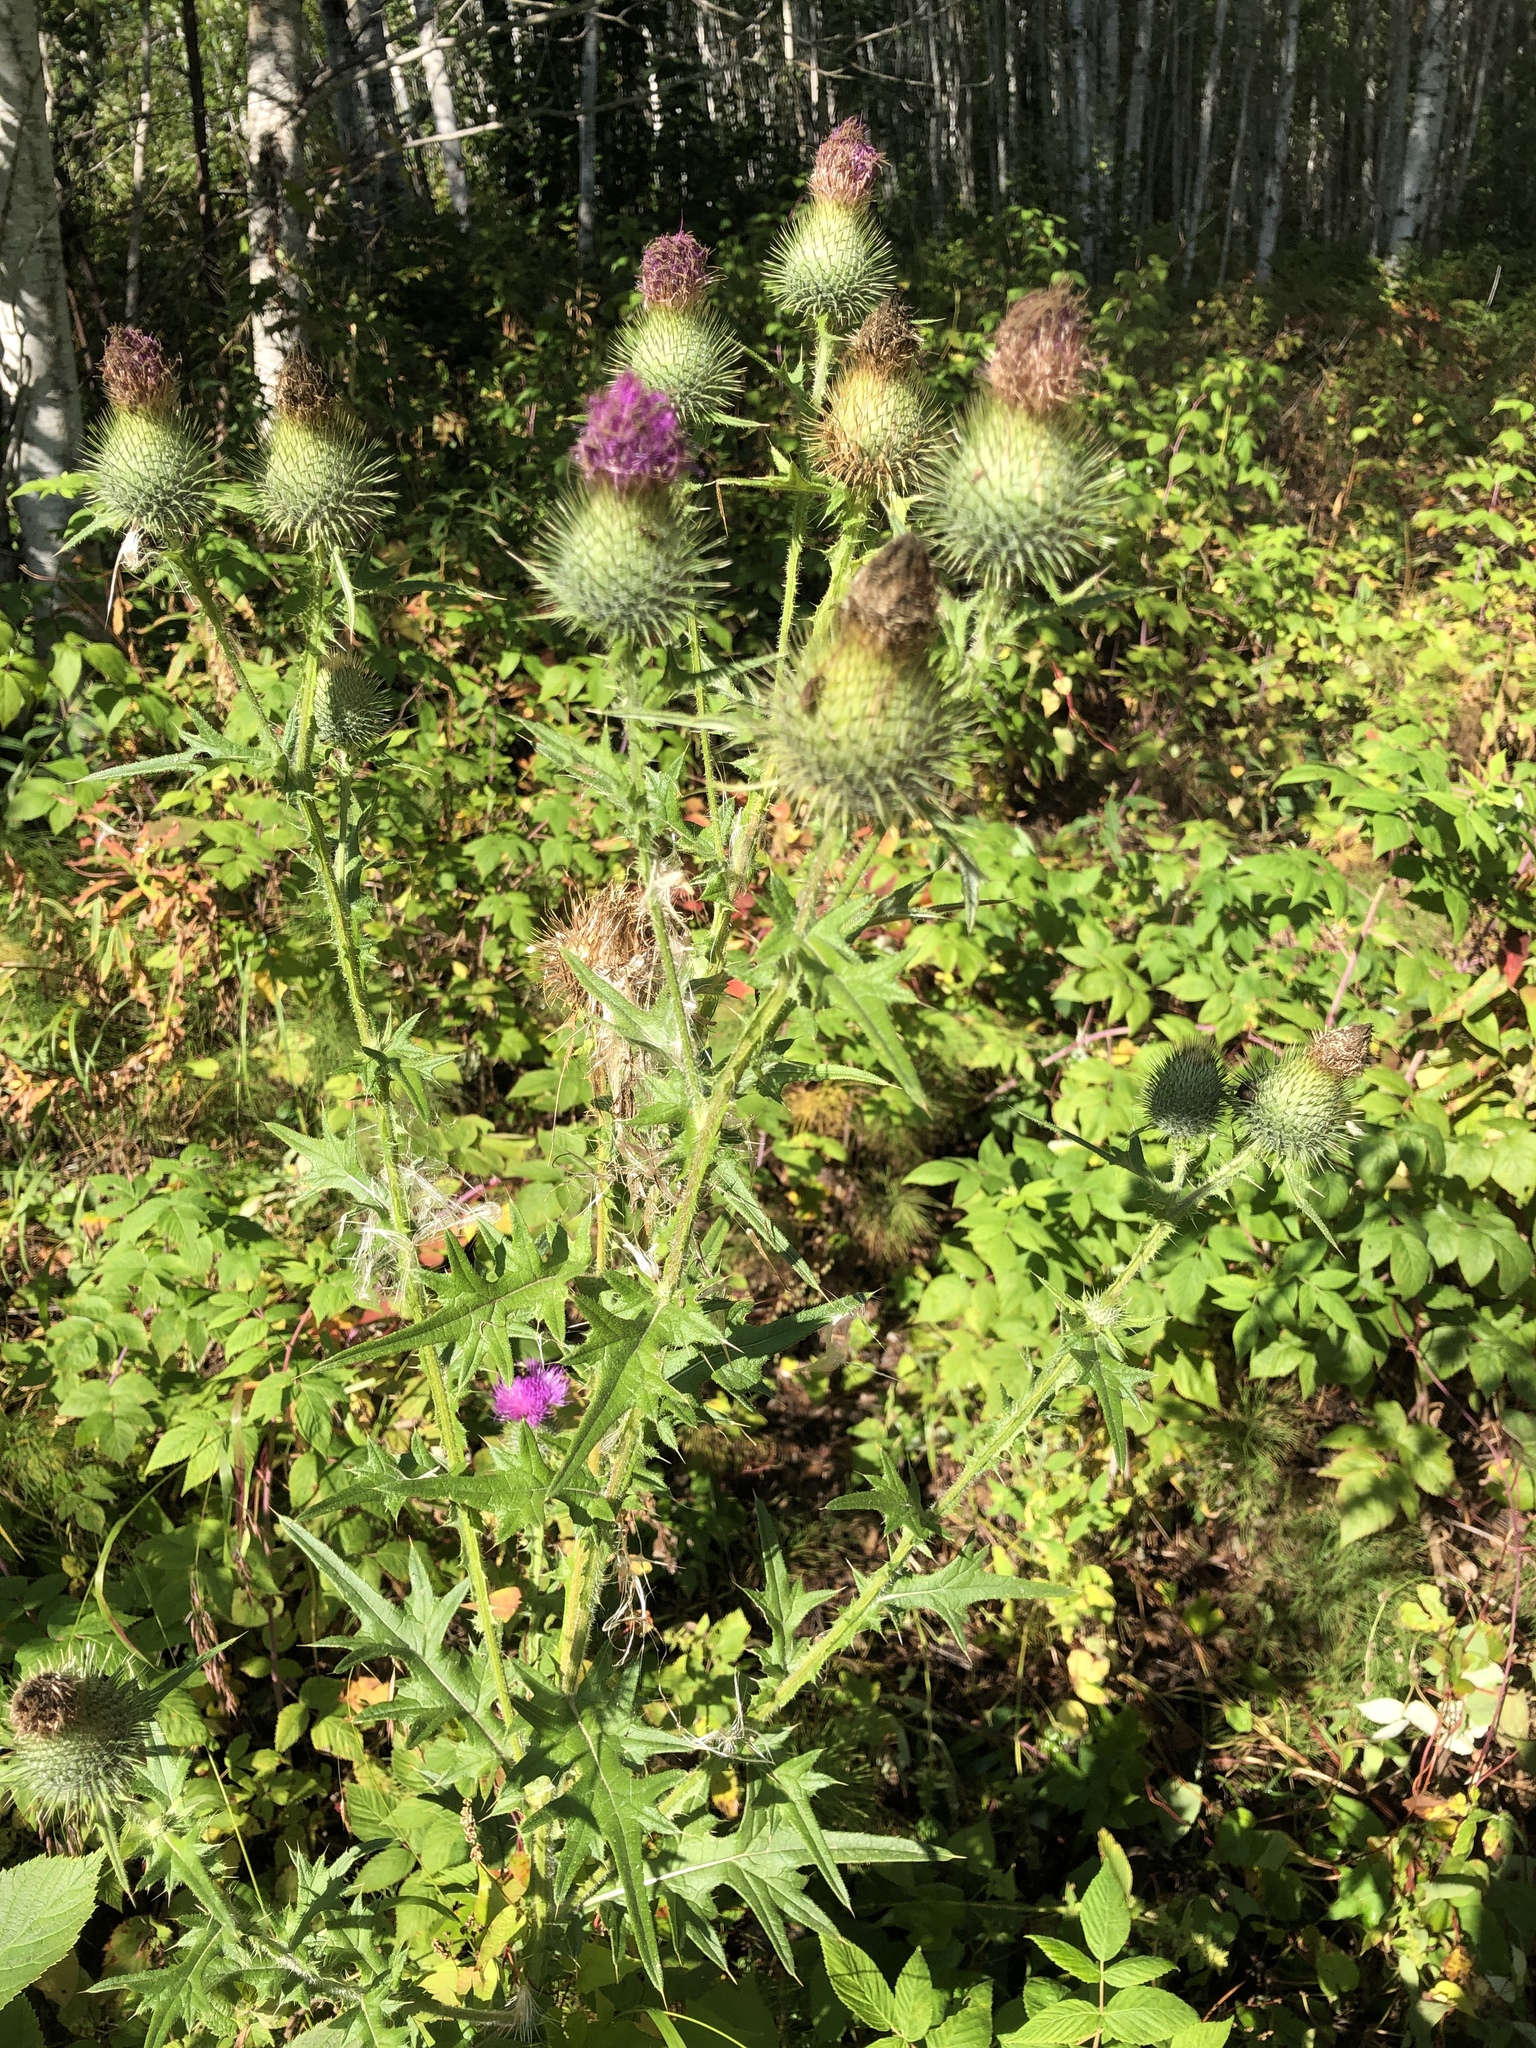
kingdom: Plantae
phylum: Tracheophyta
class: Magnoliopsida
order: Asterales
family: Asteraceae
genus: Cirsium
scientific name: Cirsium vulgare
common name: Bull thistle
